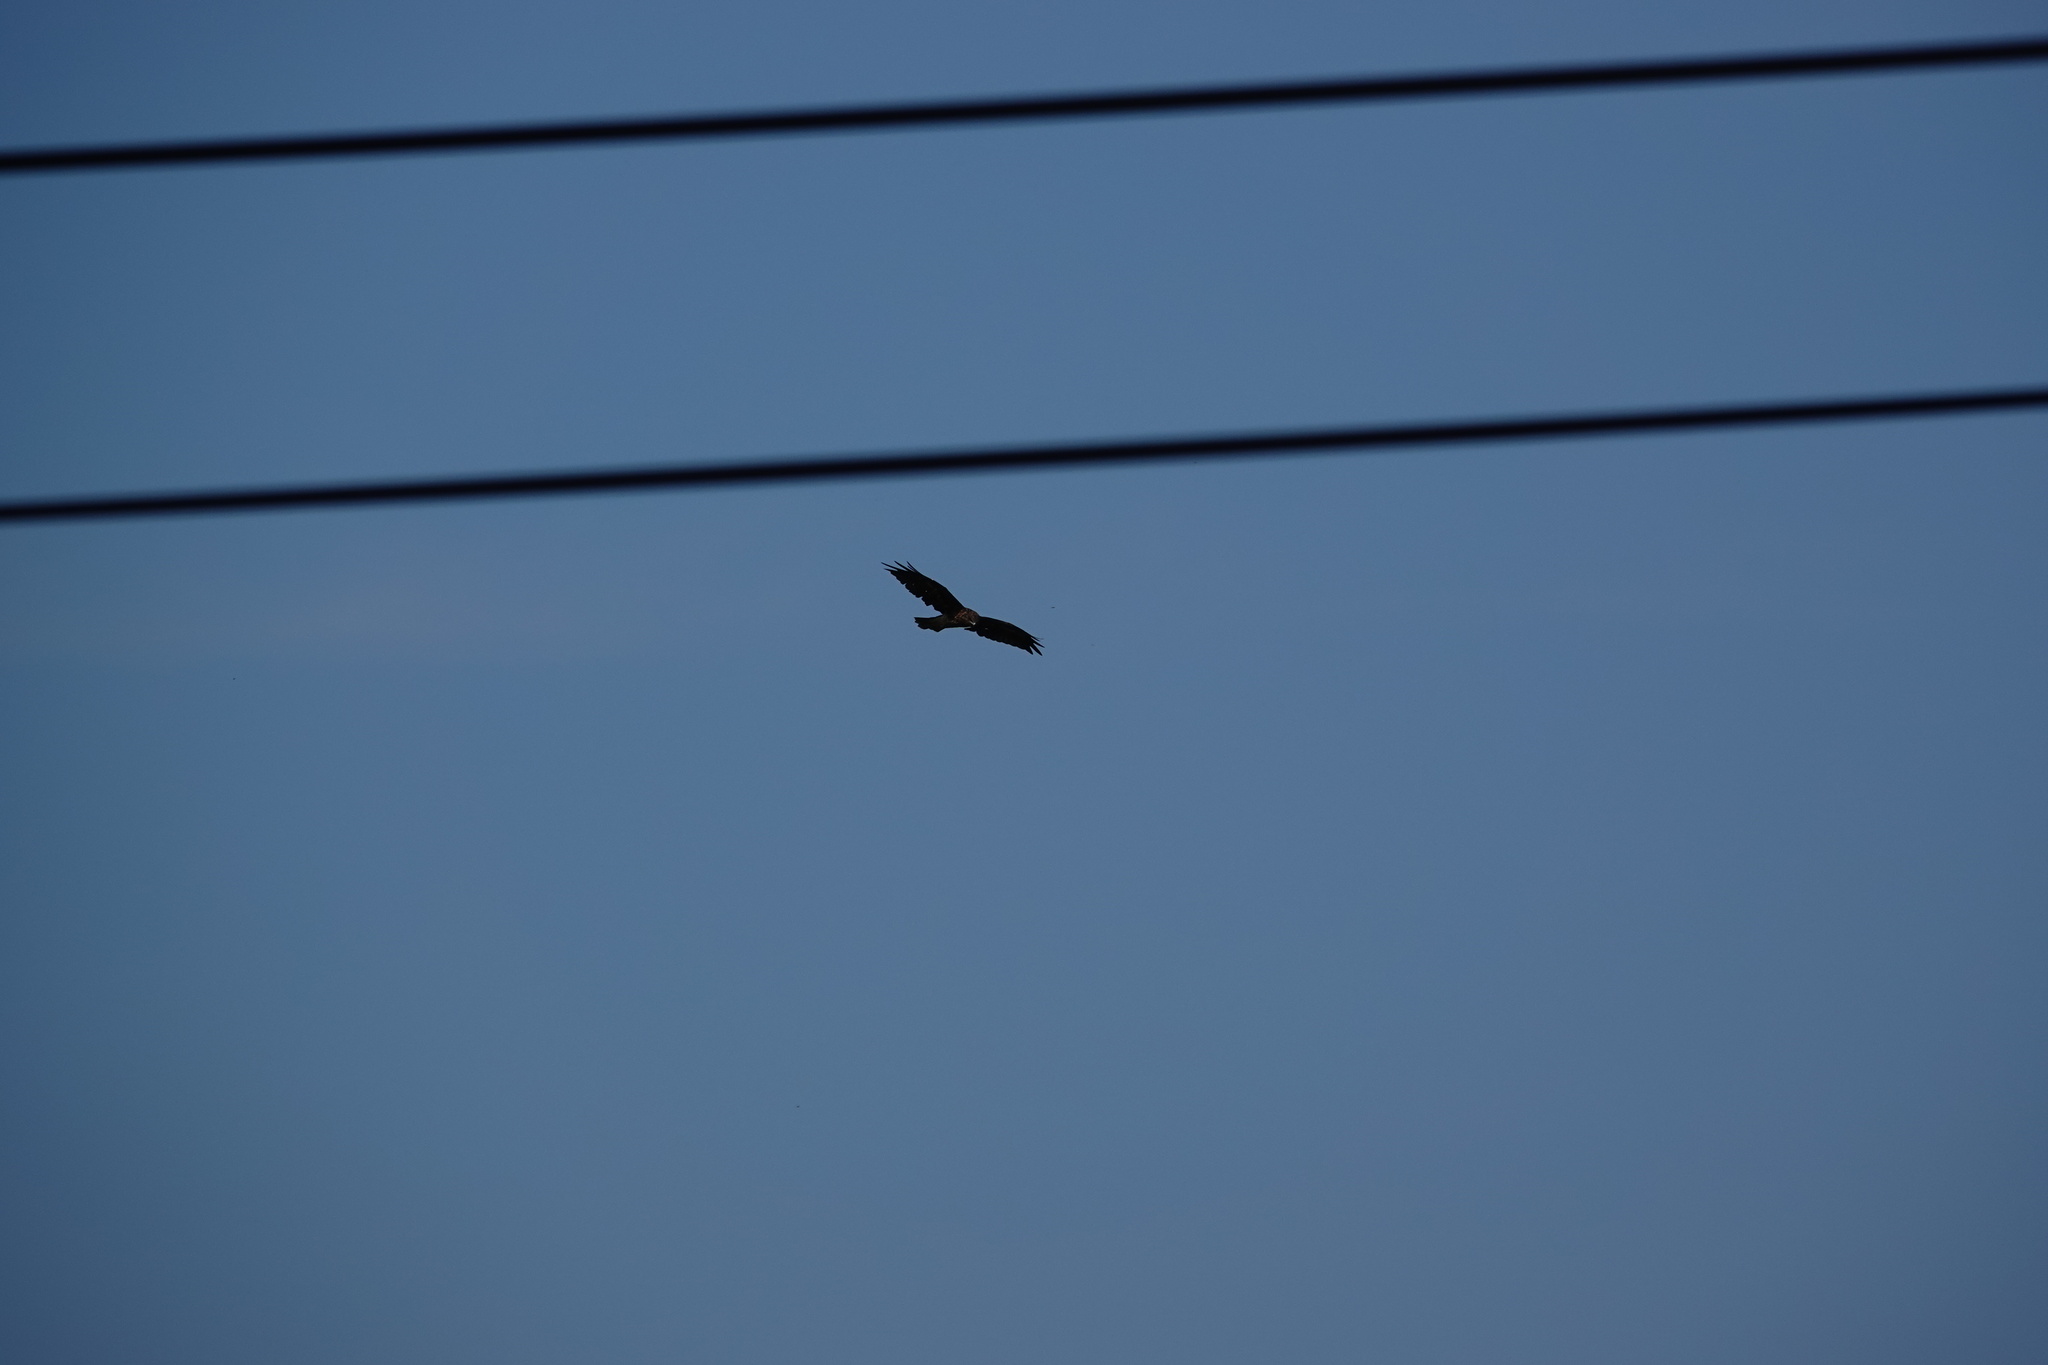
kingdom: Animalia
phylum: Chordata
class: Aves
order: Accipitriformes
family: Accipitridae
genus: Milvus
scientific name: Milvus migrans
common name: Black kite
